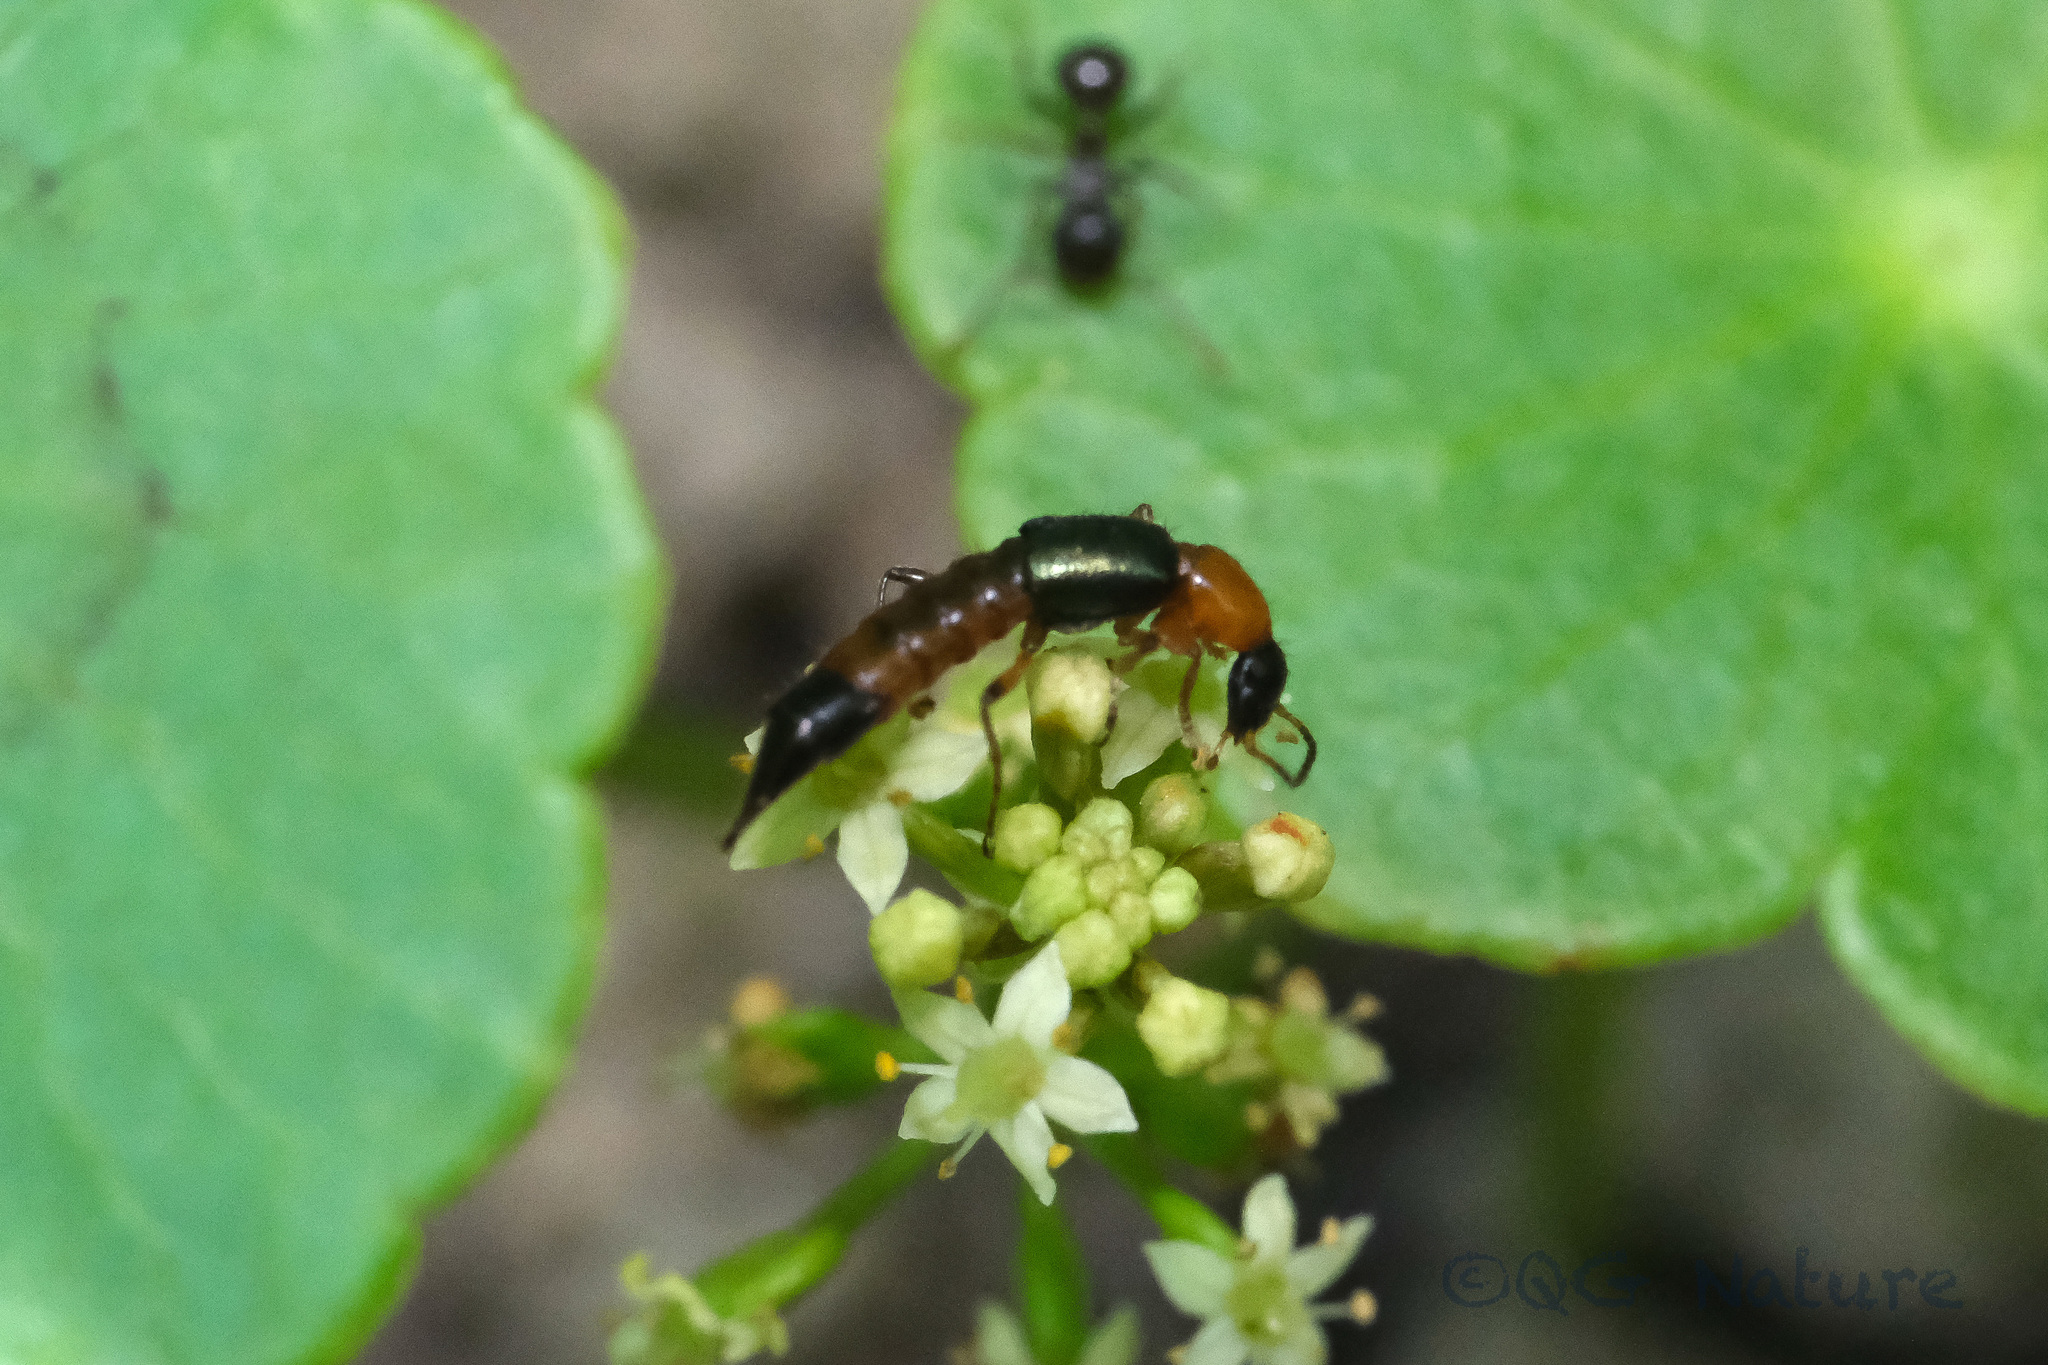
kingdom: Animalia
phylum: Arthropoda
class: Insecta
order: Coleoptera
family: Staphylinidae
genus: Paederus
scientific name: Paederus fuscipes
